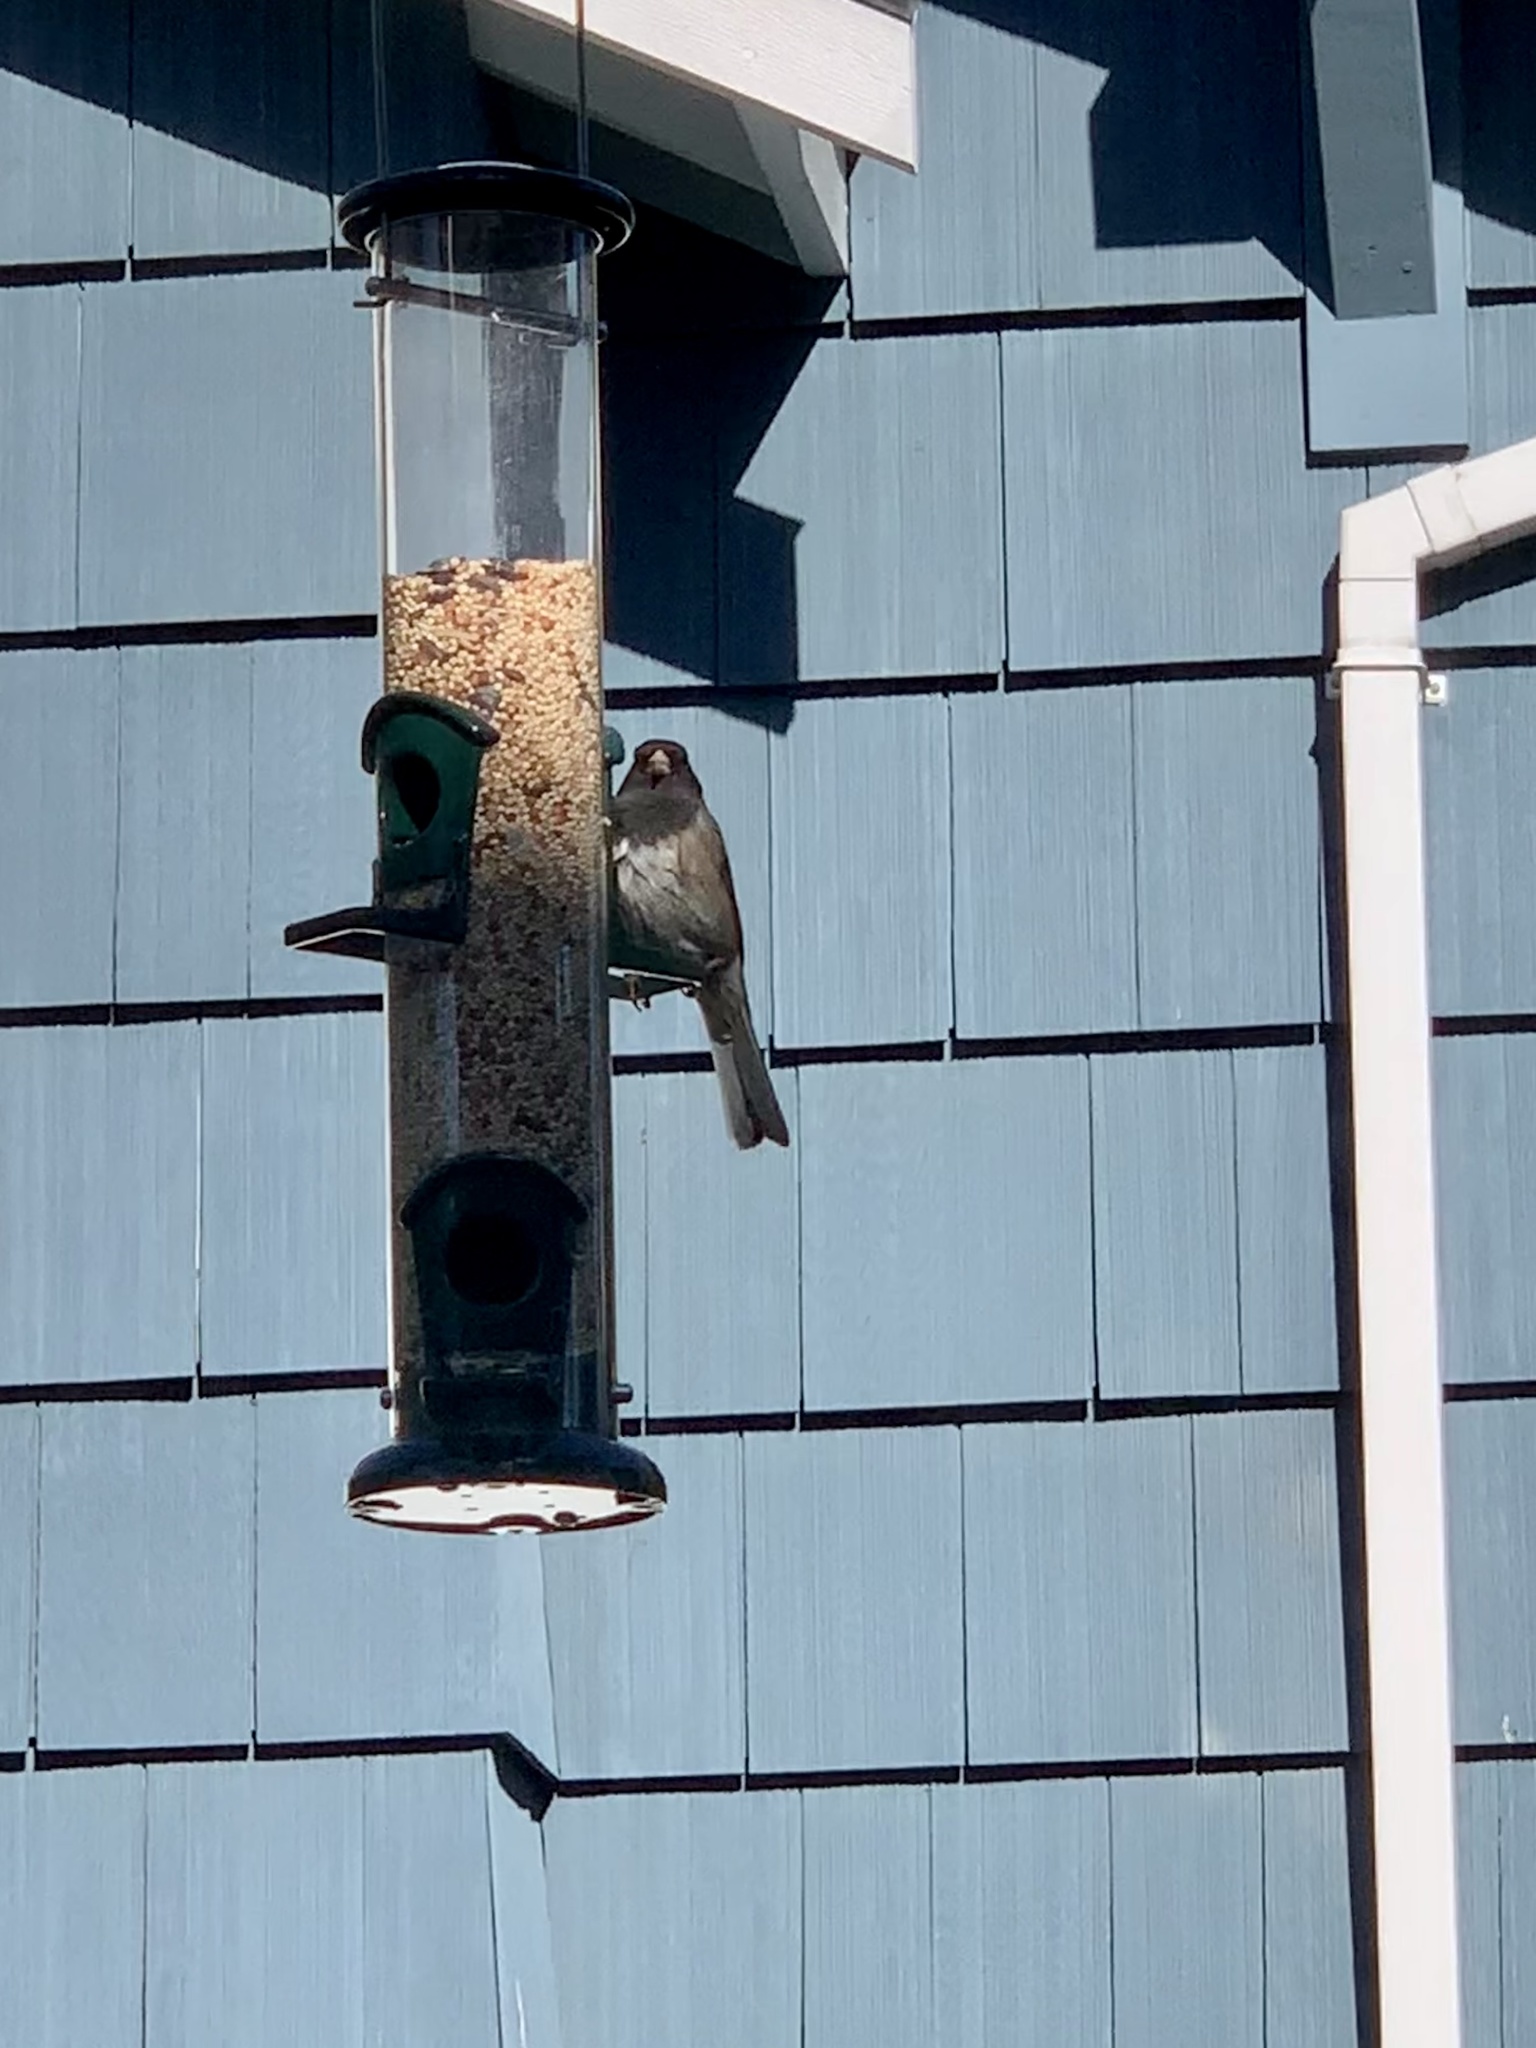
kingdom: Animalia
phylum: Chordata
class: Aves
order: Passeriformes
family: Passerellidae
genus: Junco
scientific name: Junco hyemalis
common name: Dark-eyed junco
